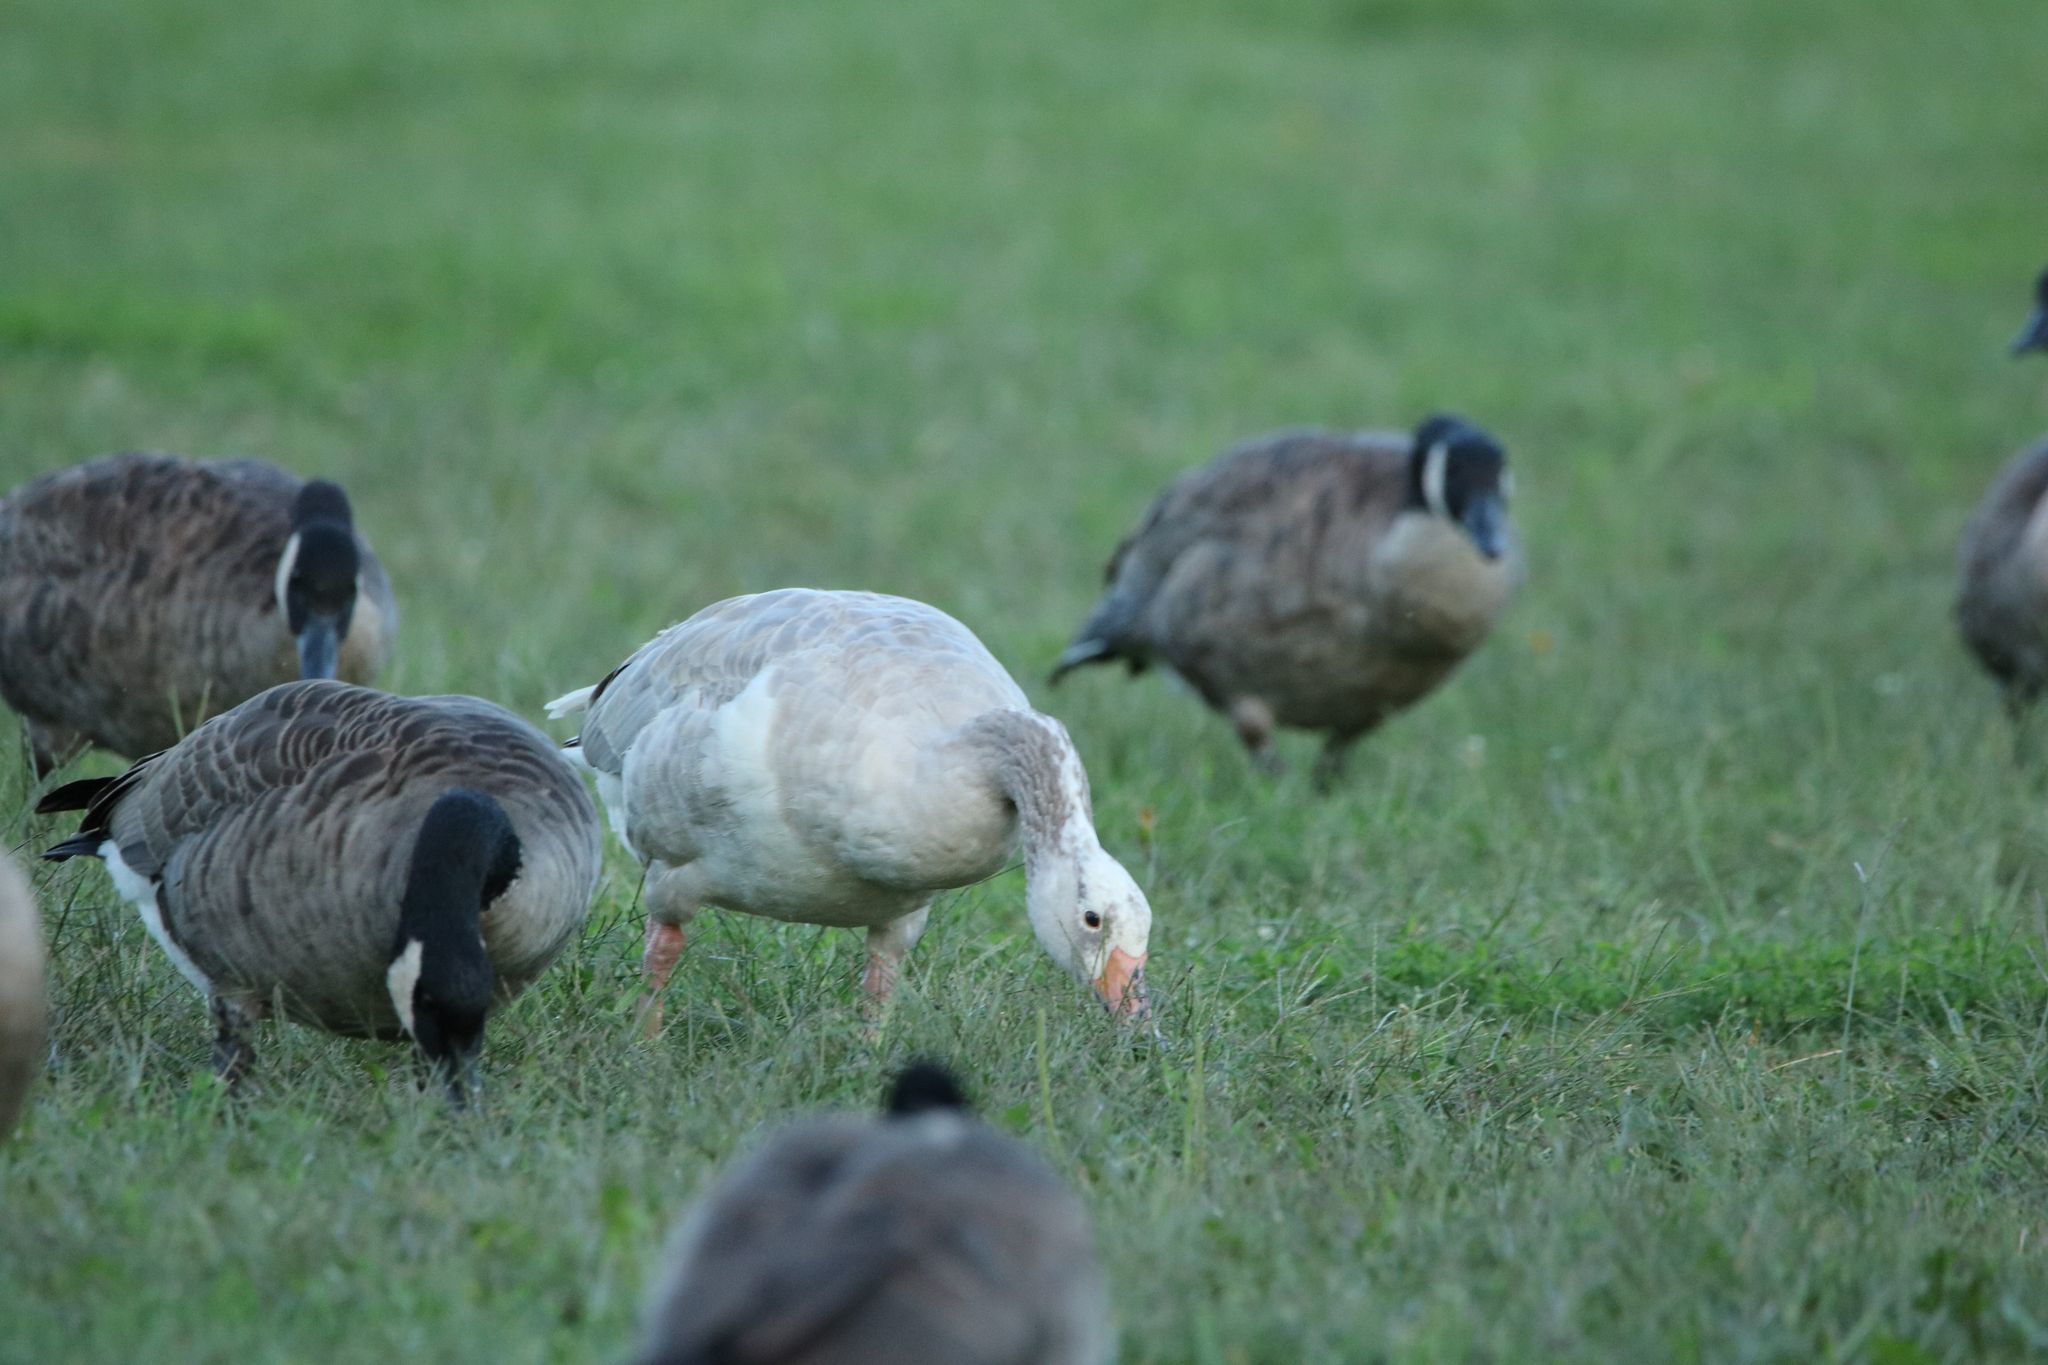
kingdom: Animalia
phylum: Chordata
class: Aves
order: Anseriformes
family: Anatidae
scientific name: Anatidae
